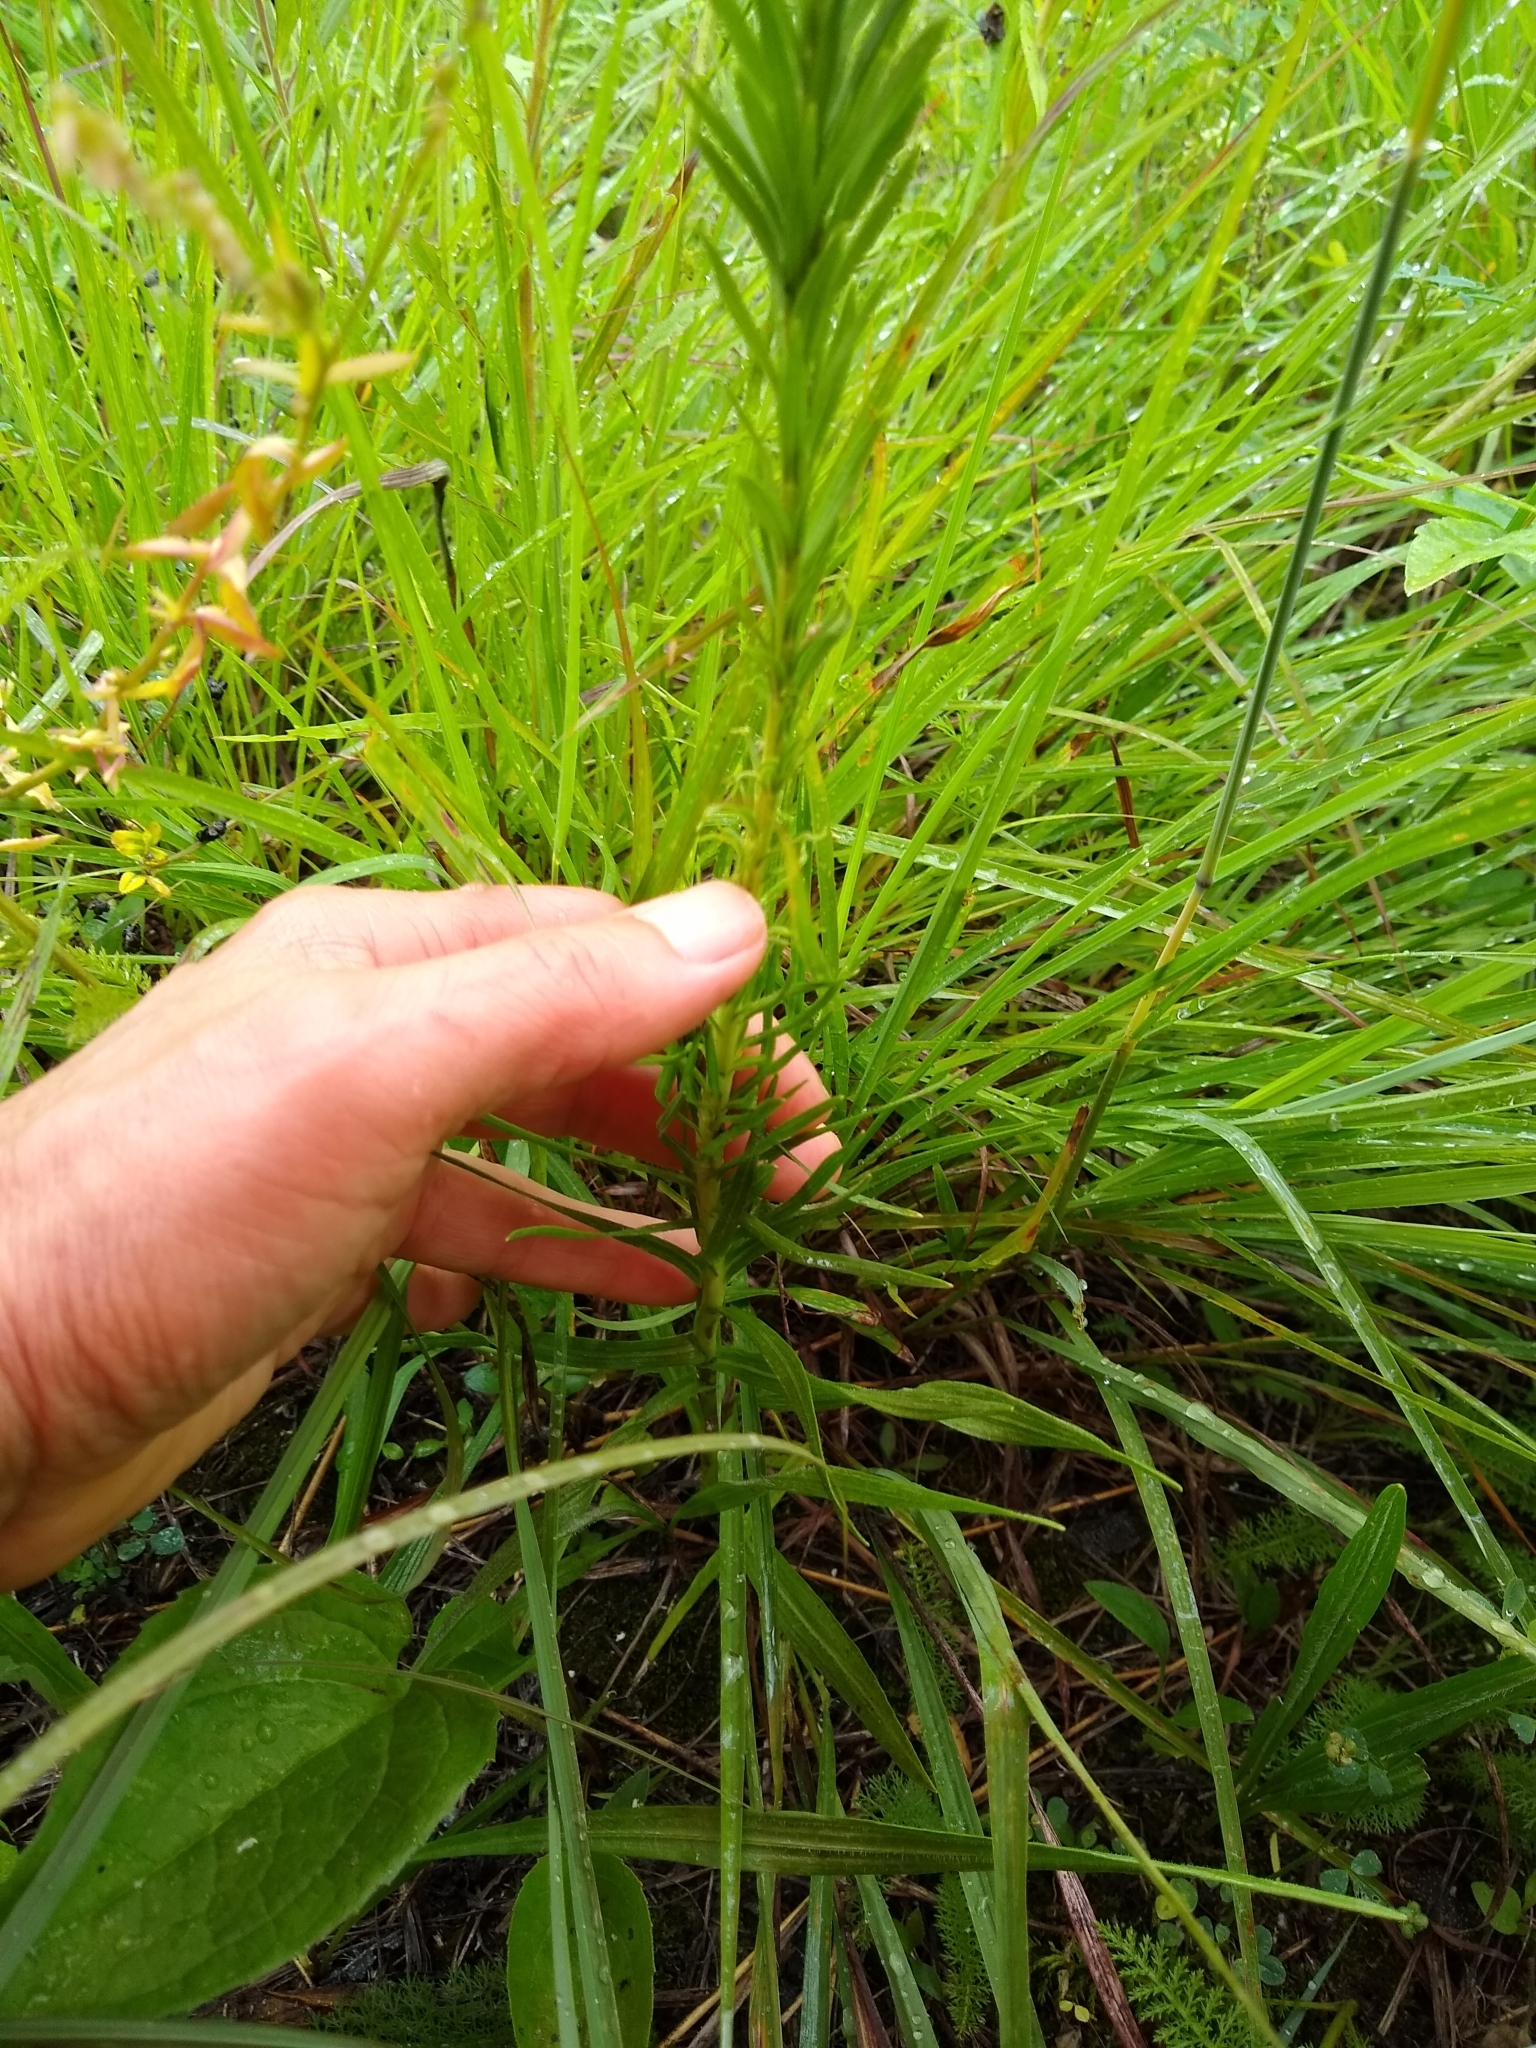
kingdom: Plantae
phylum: Tracheophyta
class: Magnoliopsida
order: Asterales
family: Asteraceae
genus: Liatris
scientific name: Liatris spicata
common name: Florist gayfeather
